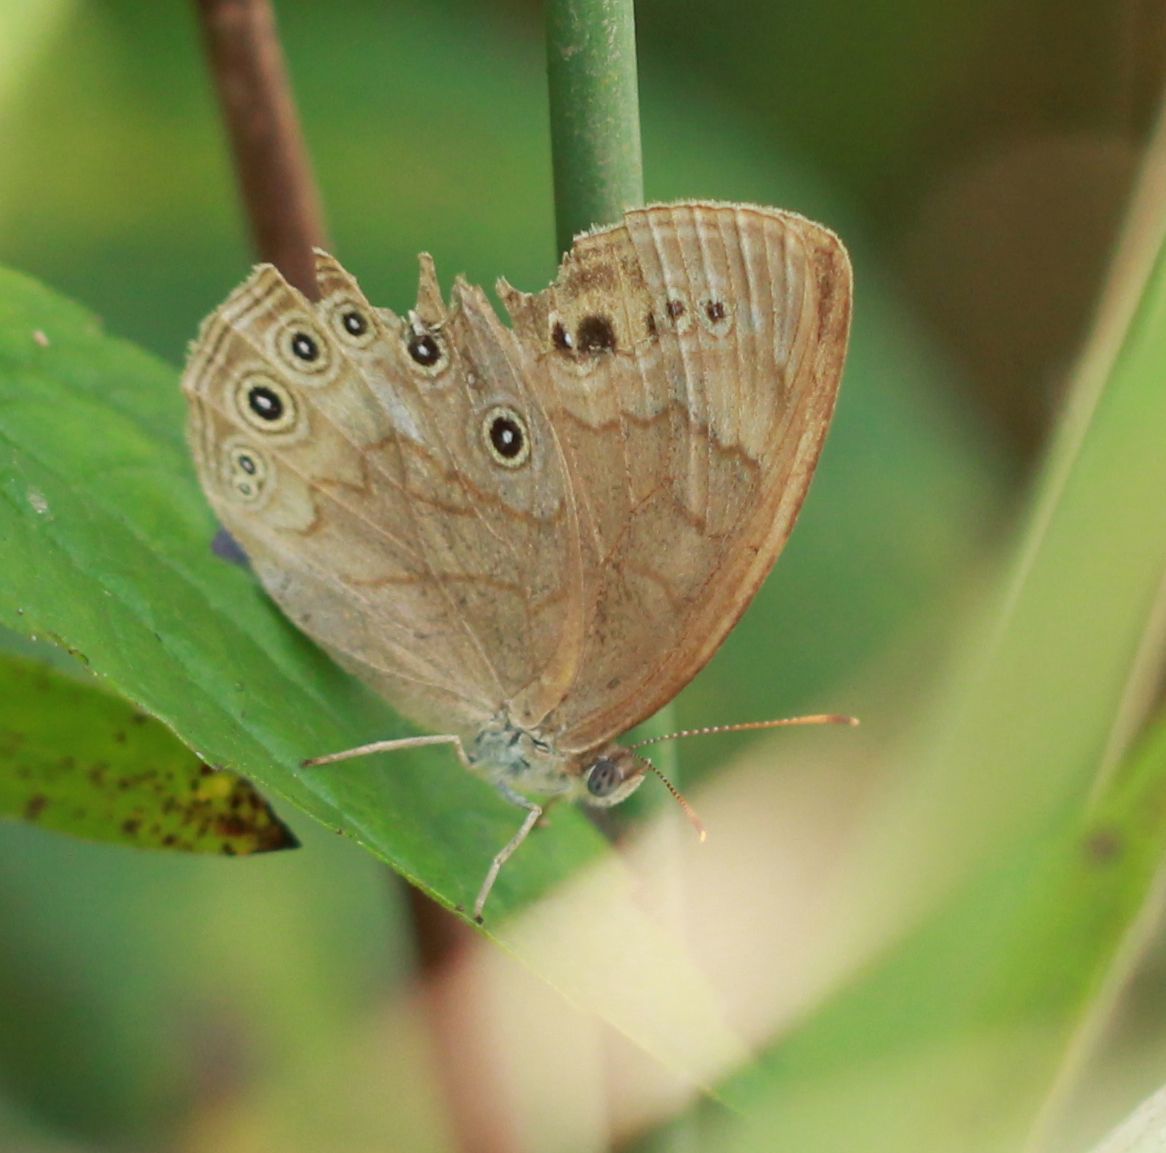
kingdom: Animalia
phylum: Arthropoda
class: Insecta
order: Lepidoptera
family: Nymphalidae
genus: Lethe
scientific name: Lethe eurydice
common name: Eyed brown
